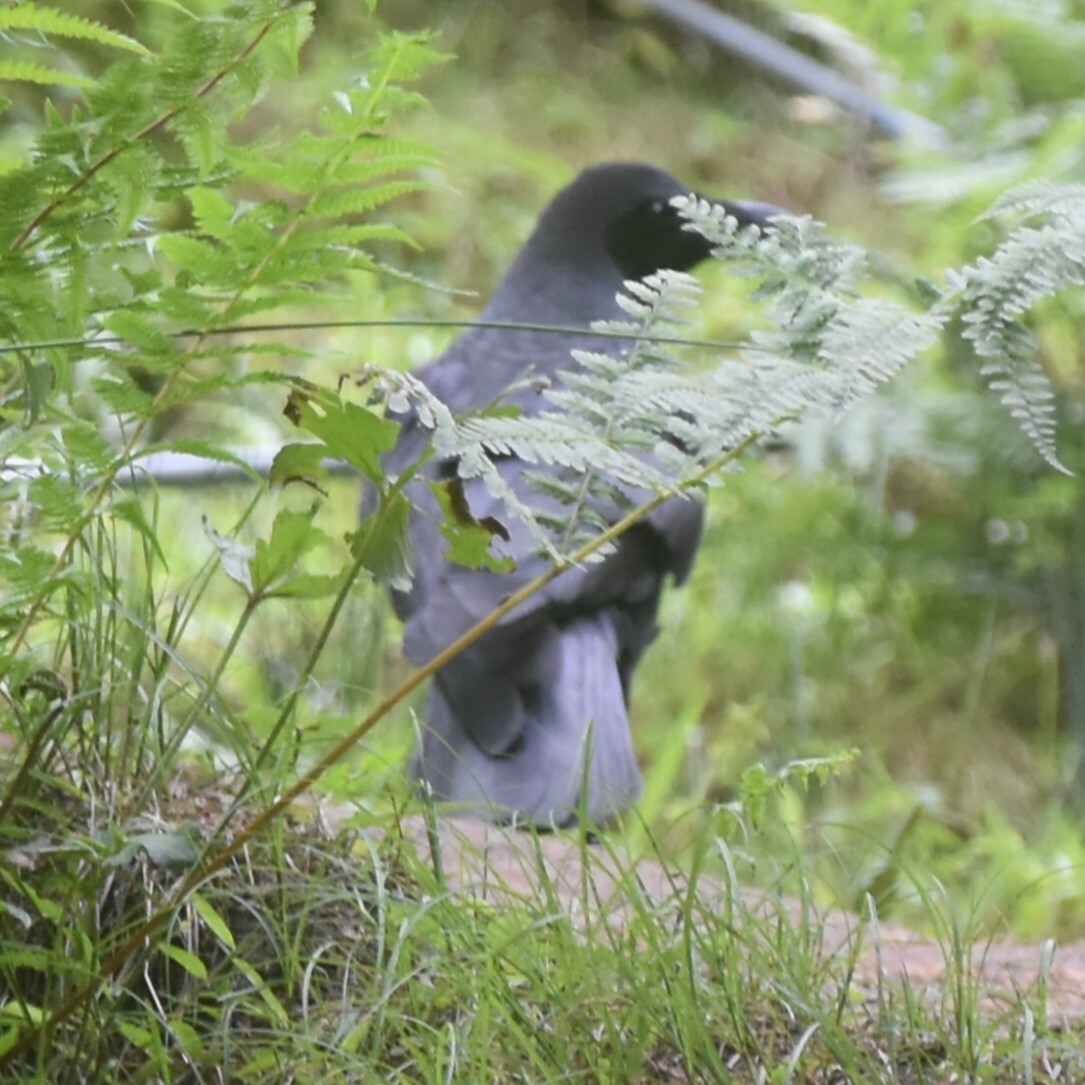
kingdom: Animalia
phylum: Chordata
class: Aves
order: Passeriformes
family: Corvidae
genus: Corvus
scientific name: Corvus macrorhynchos
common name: Large-billed crow
